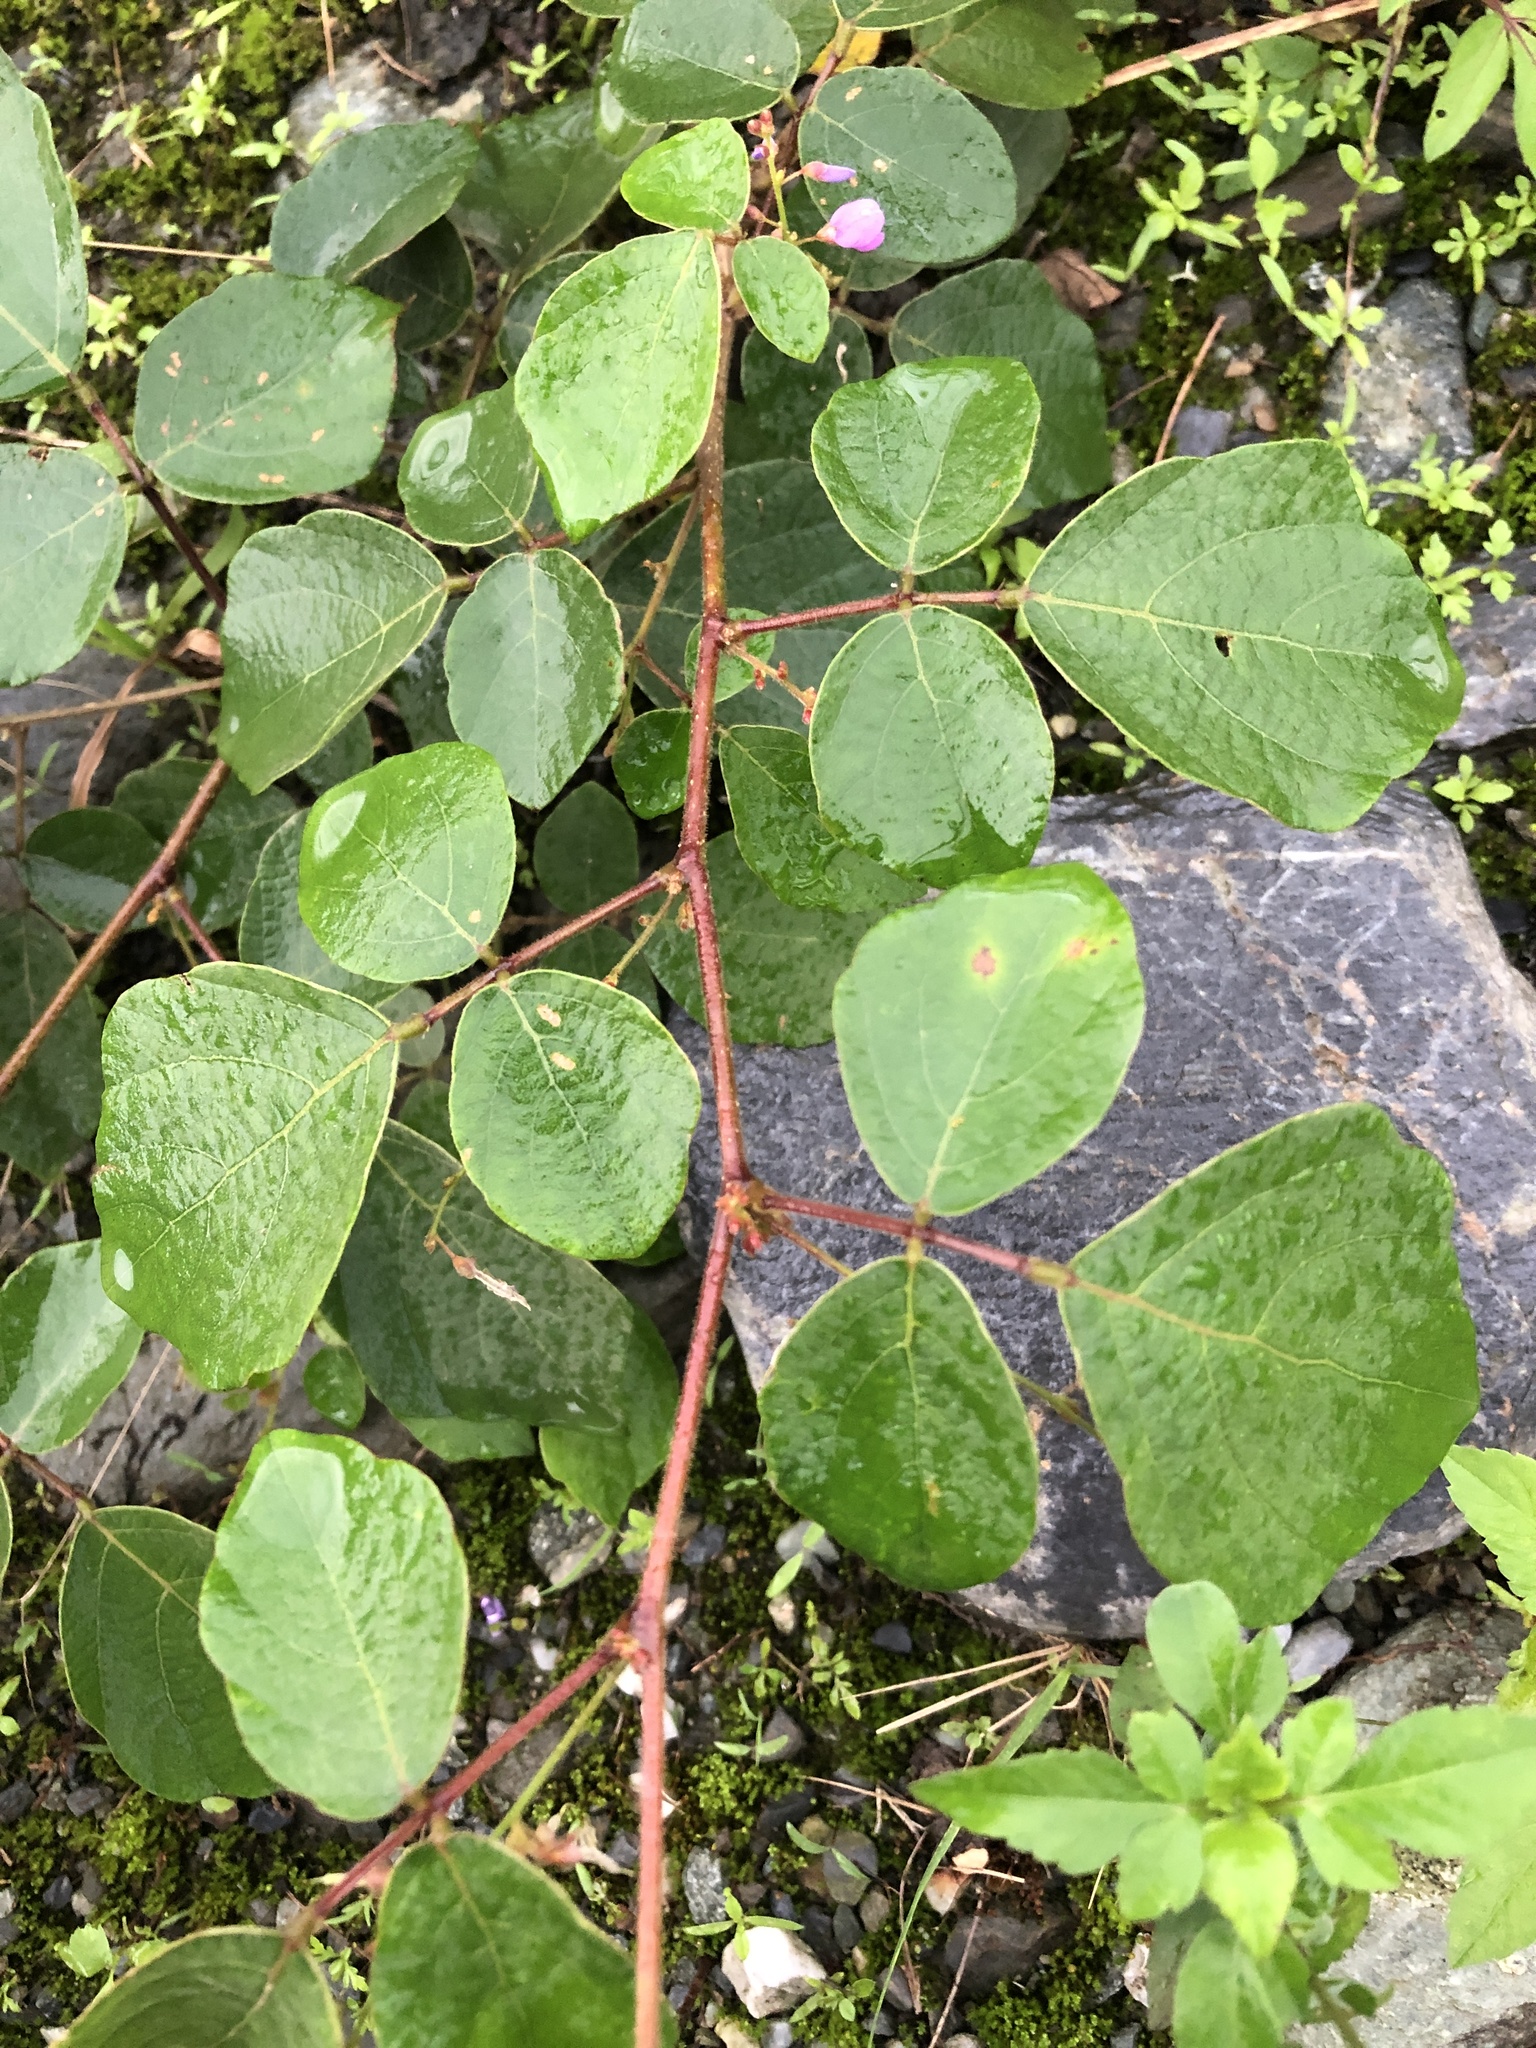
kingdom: Plantae
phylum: Tracheophyta
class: Magnoliopsida
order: Fabales
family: Fabaceae
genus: Puhuaea
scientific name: Puhuaea sequax
